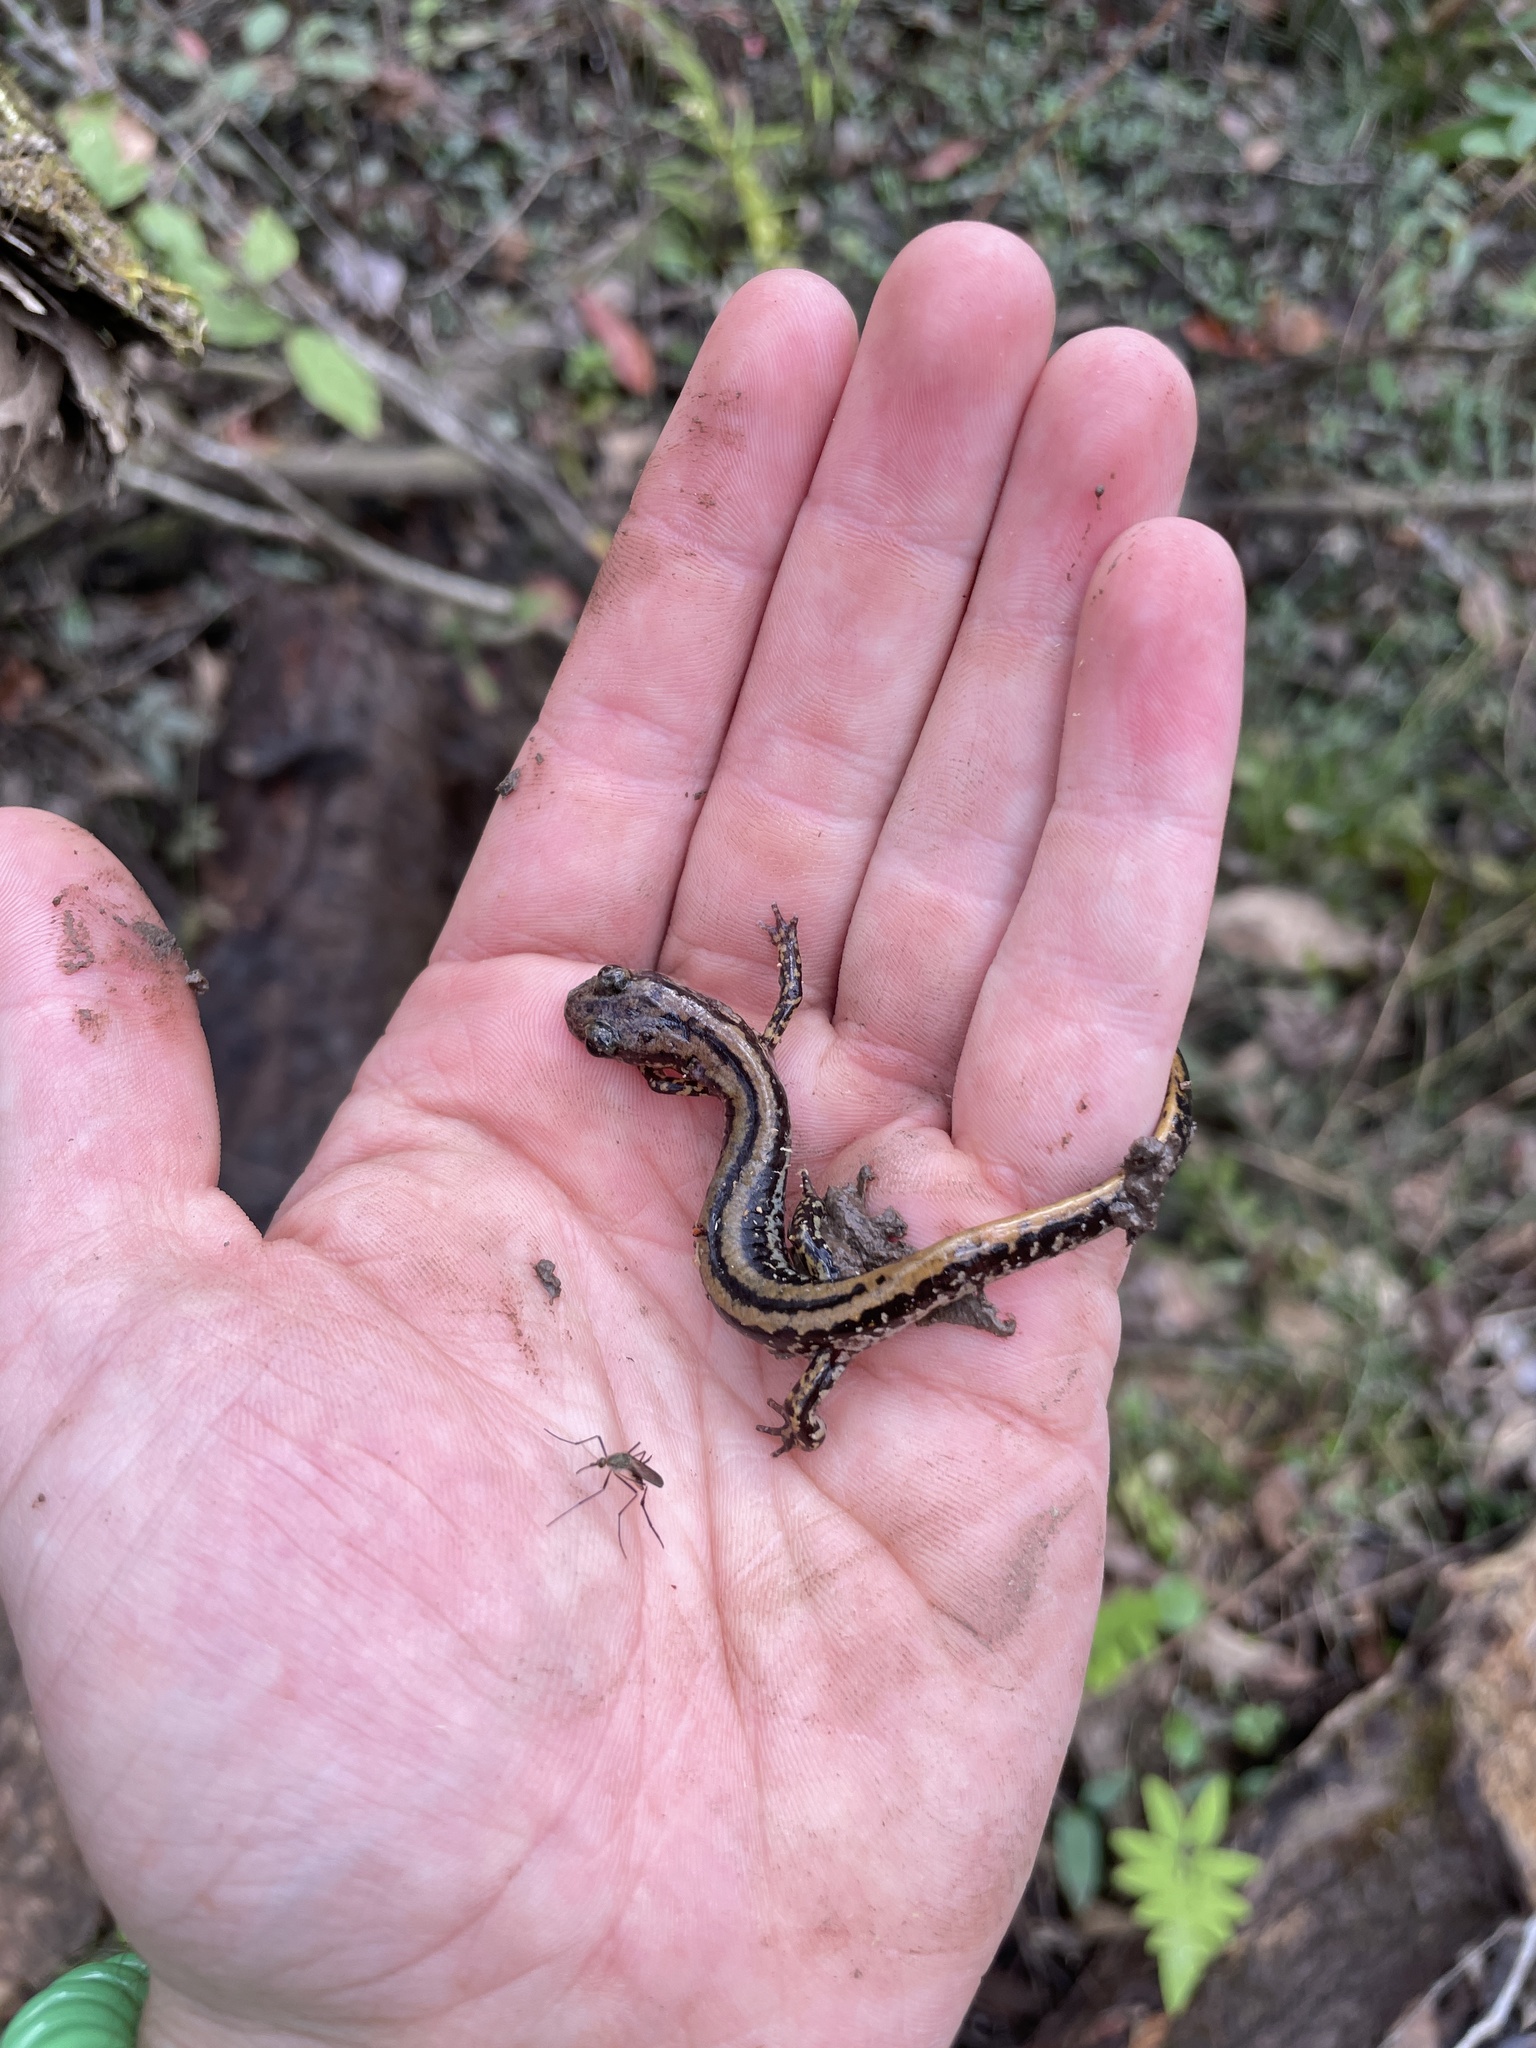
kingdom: Animalia
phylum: Chordata
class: Amphibia
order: Caudata
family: Plethodontidae
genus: Eurycea
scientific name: Eurycea guttolineata
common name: Three-lined salamander
